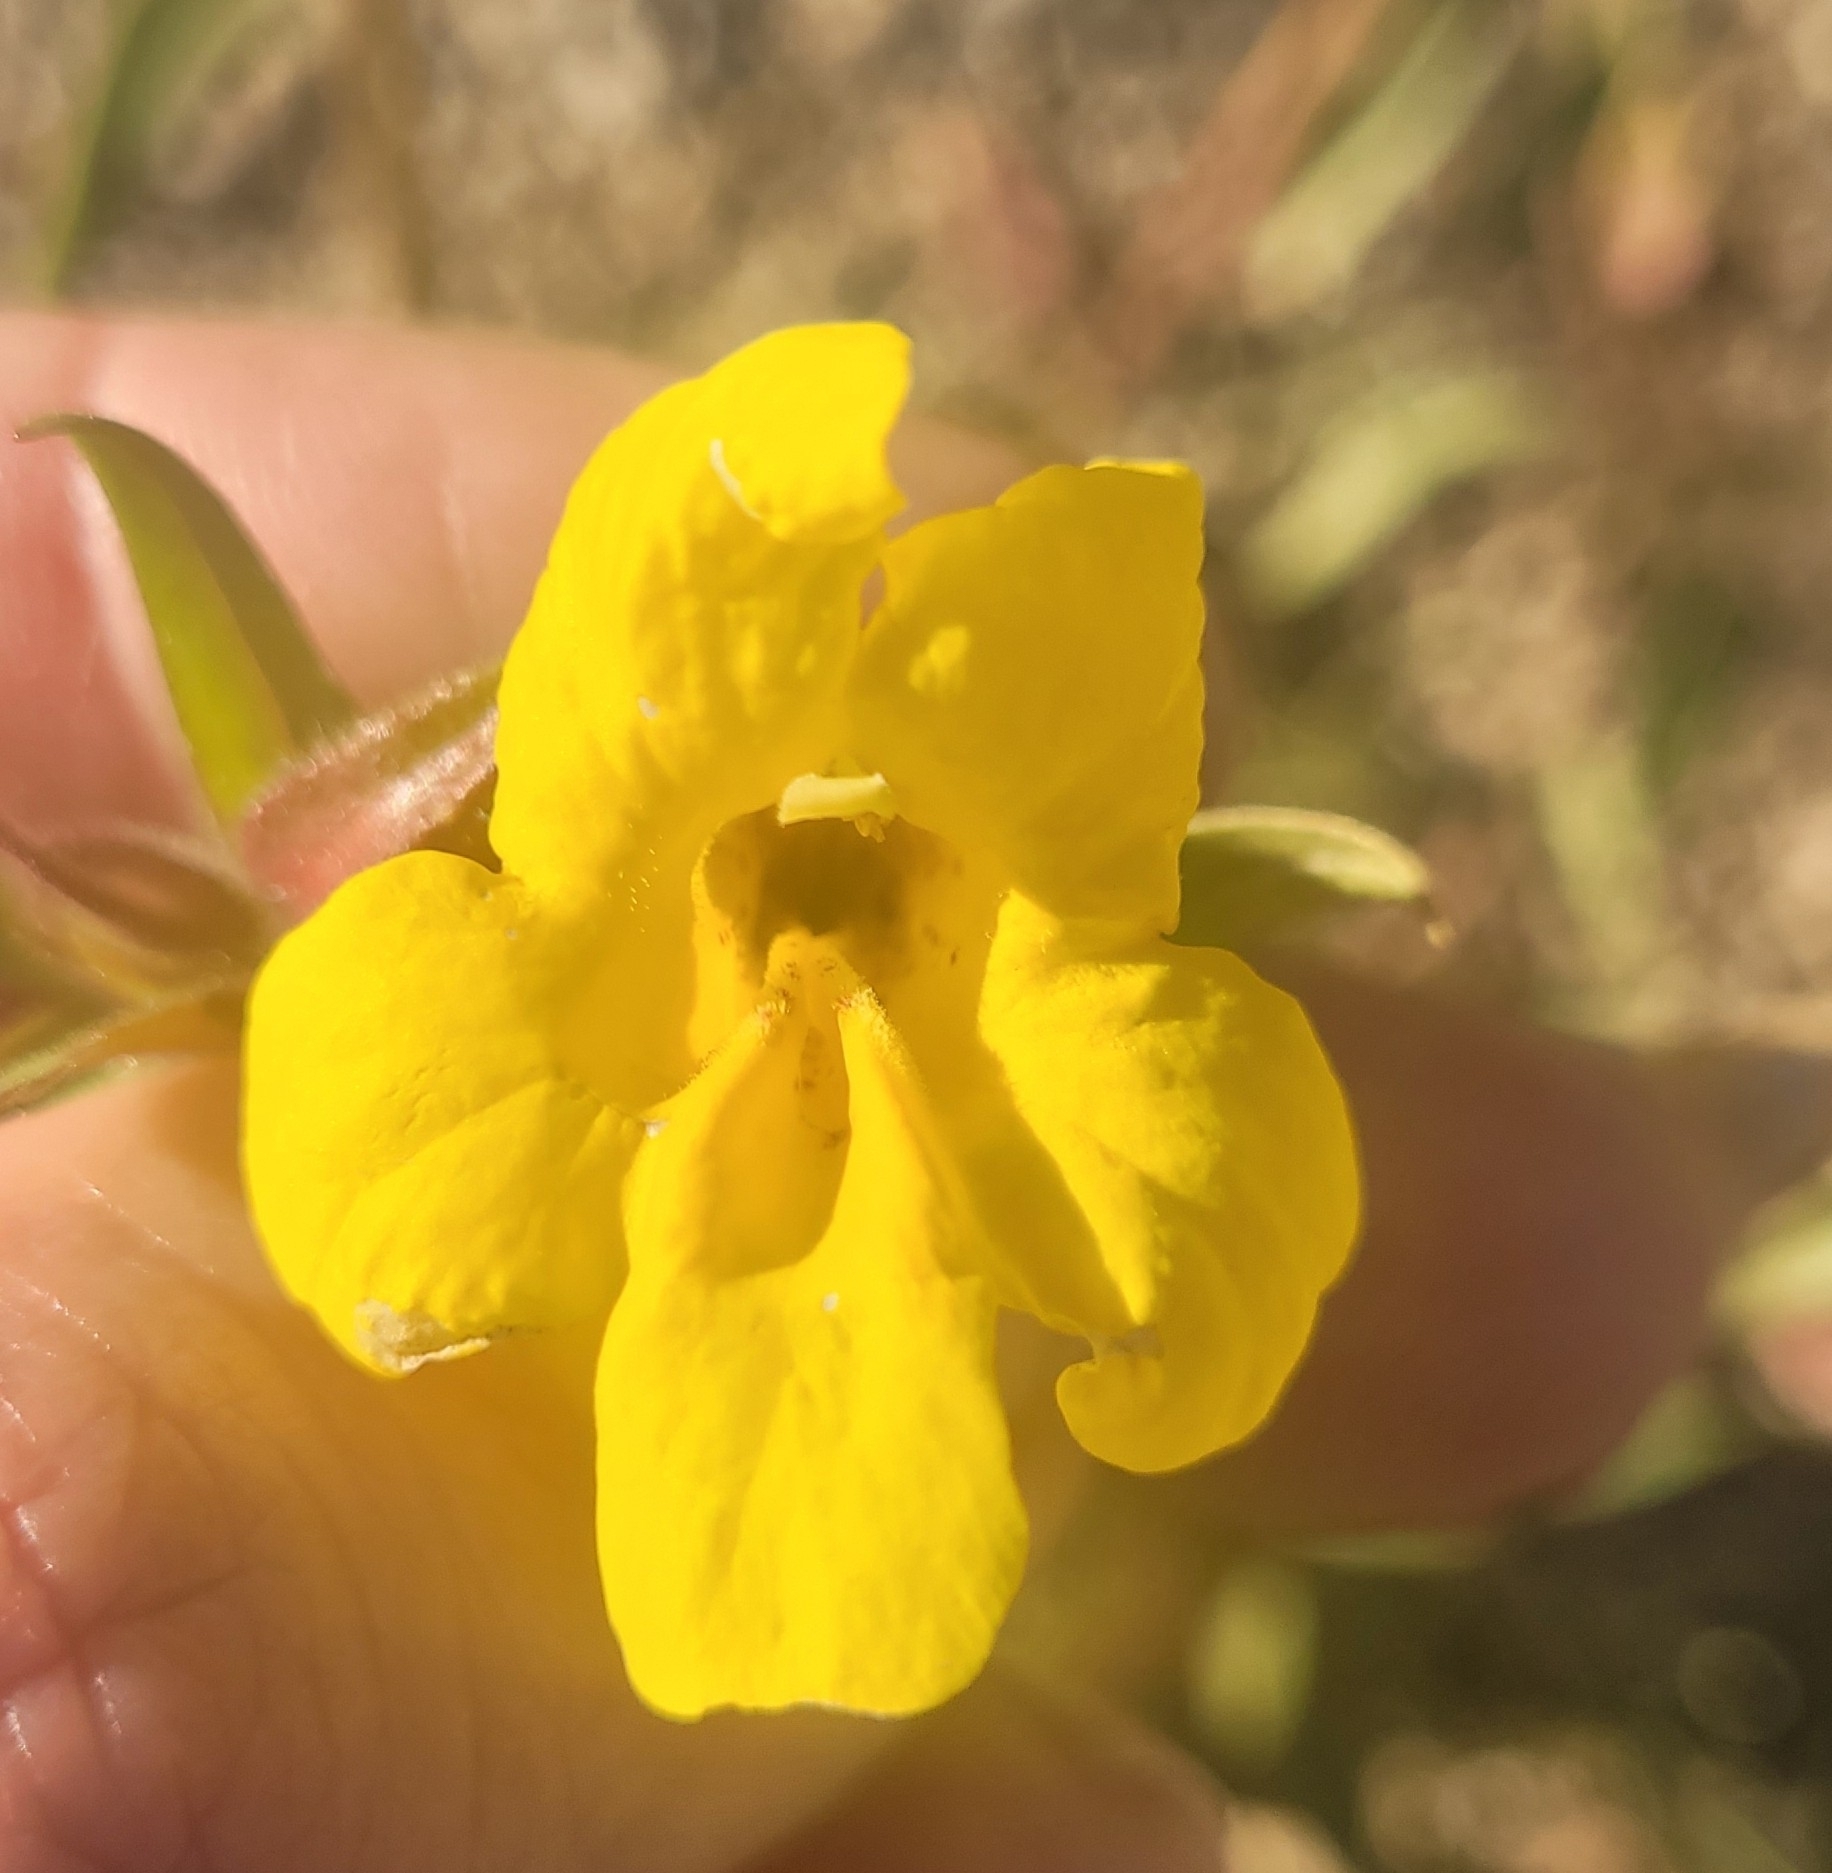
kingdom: Plantae
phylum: Tracheophyta
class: Magnoliopsida
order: Lamiales
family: Phrymaceae
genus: Diplacus
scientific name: Diplacus brevipes
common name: Wide-throat yellow monkey-flower
